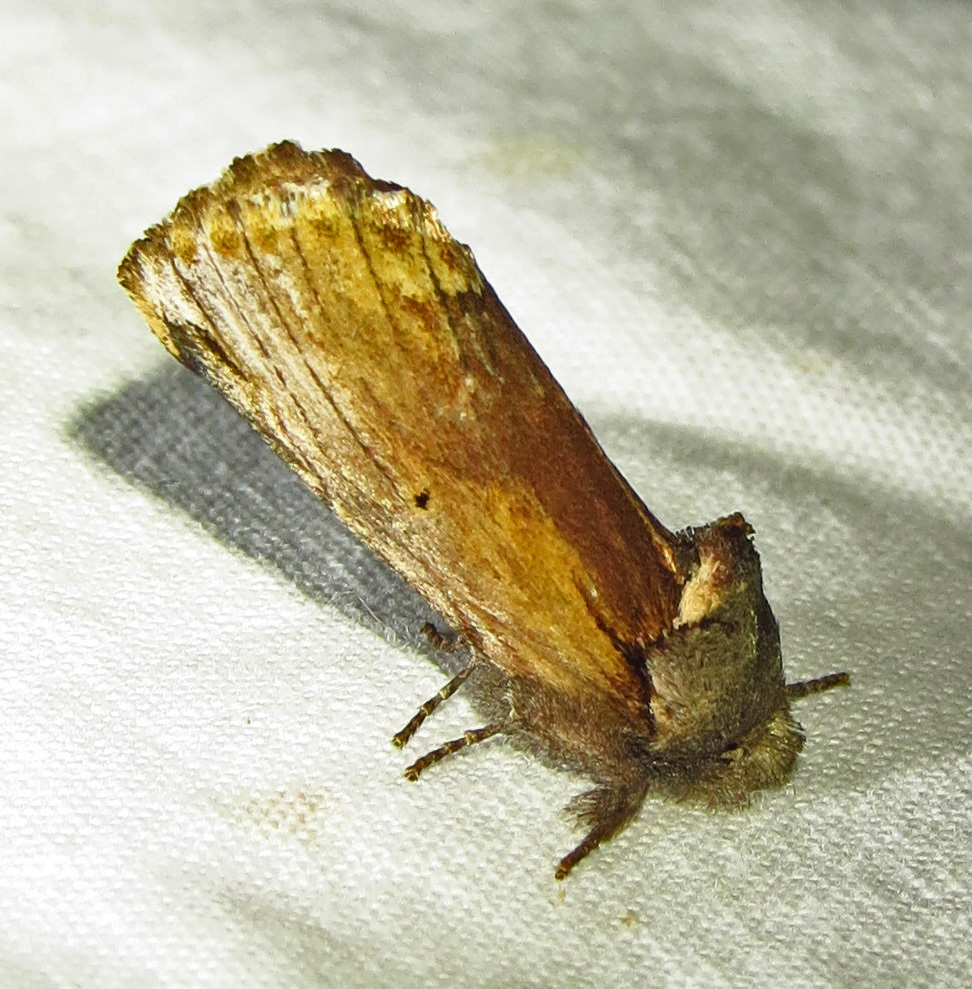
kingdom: Animalia
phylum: Arthropoda
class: Insecta
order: Lepidoptera
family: Notodontidae
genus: Schizura
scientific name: Schizura
